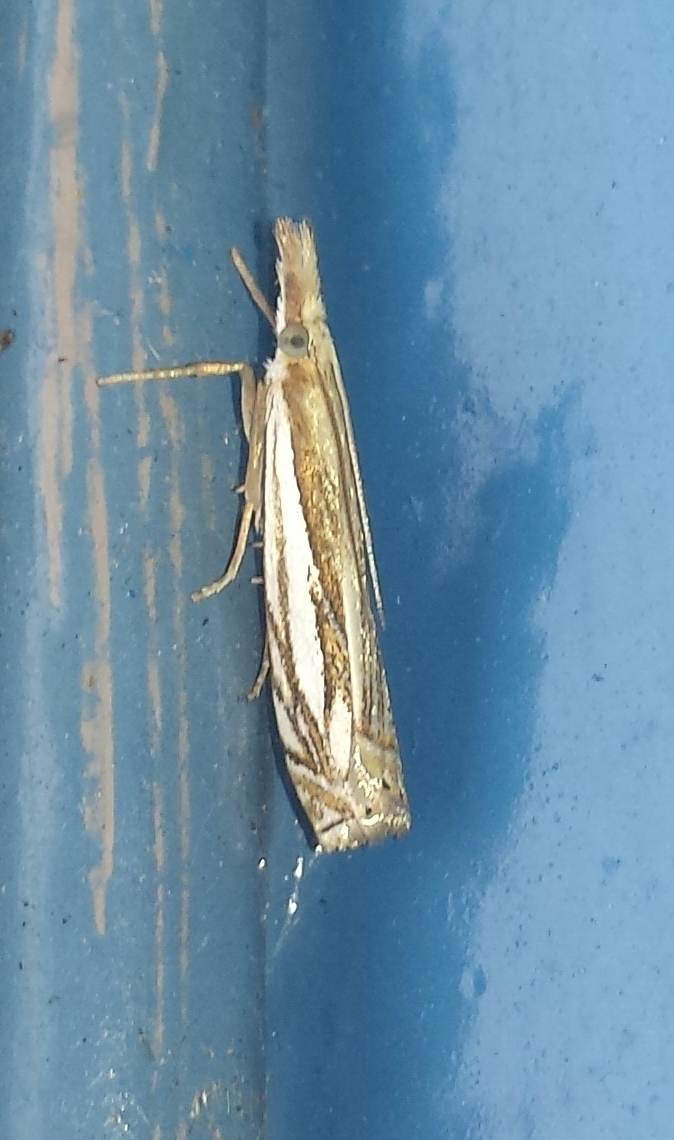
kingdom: Animalia
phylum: Arthropoda
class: Insecta
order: Lepidoptera
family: Crambidae
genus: Crambus
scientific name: Crambus saltuellus
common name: Pasture grass-veneer
